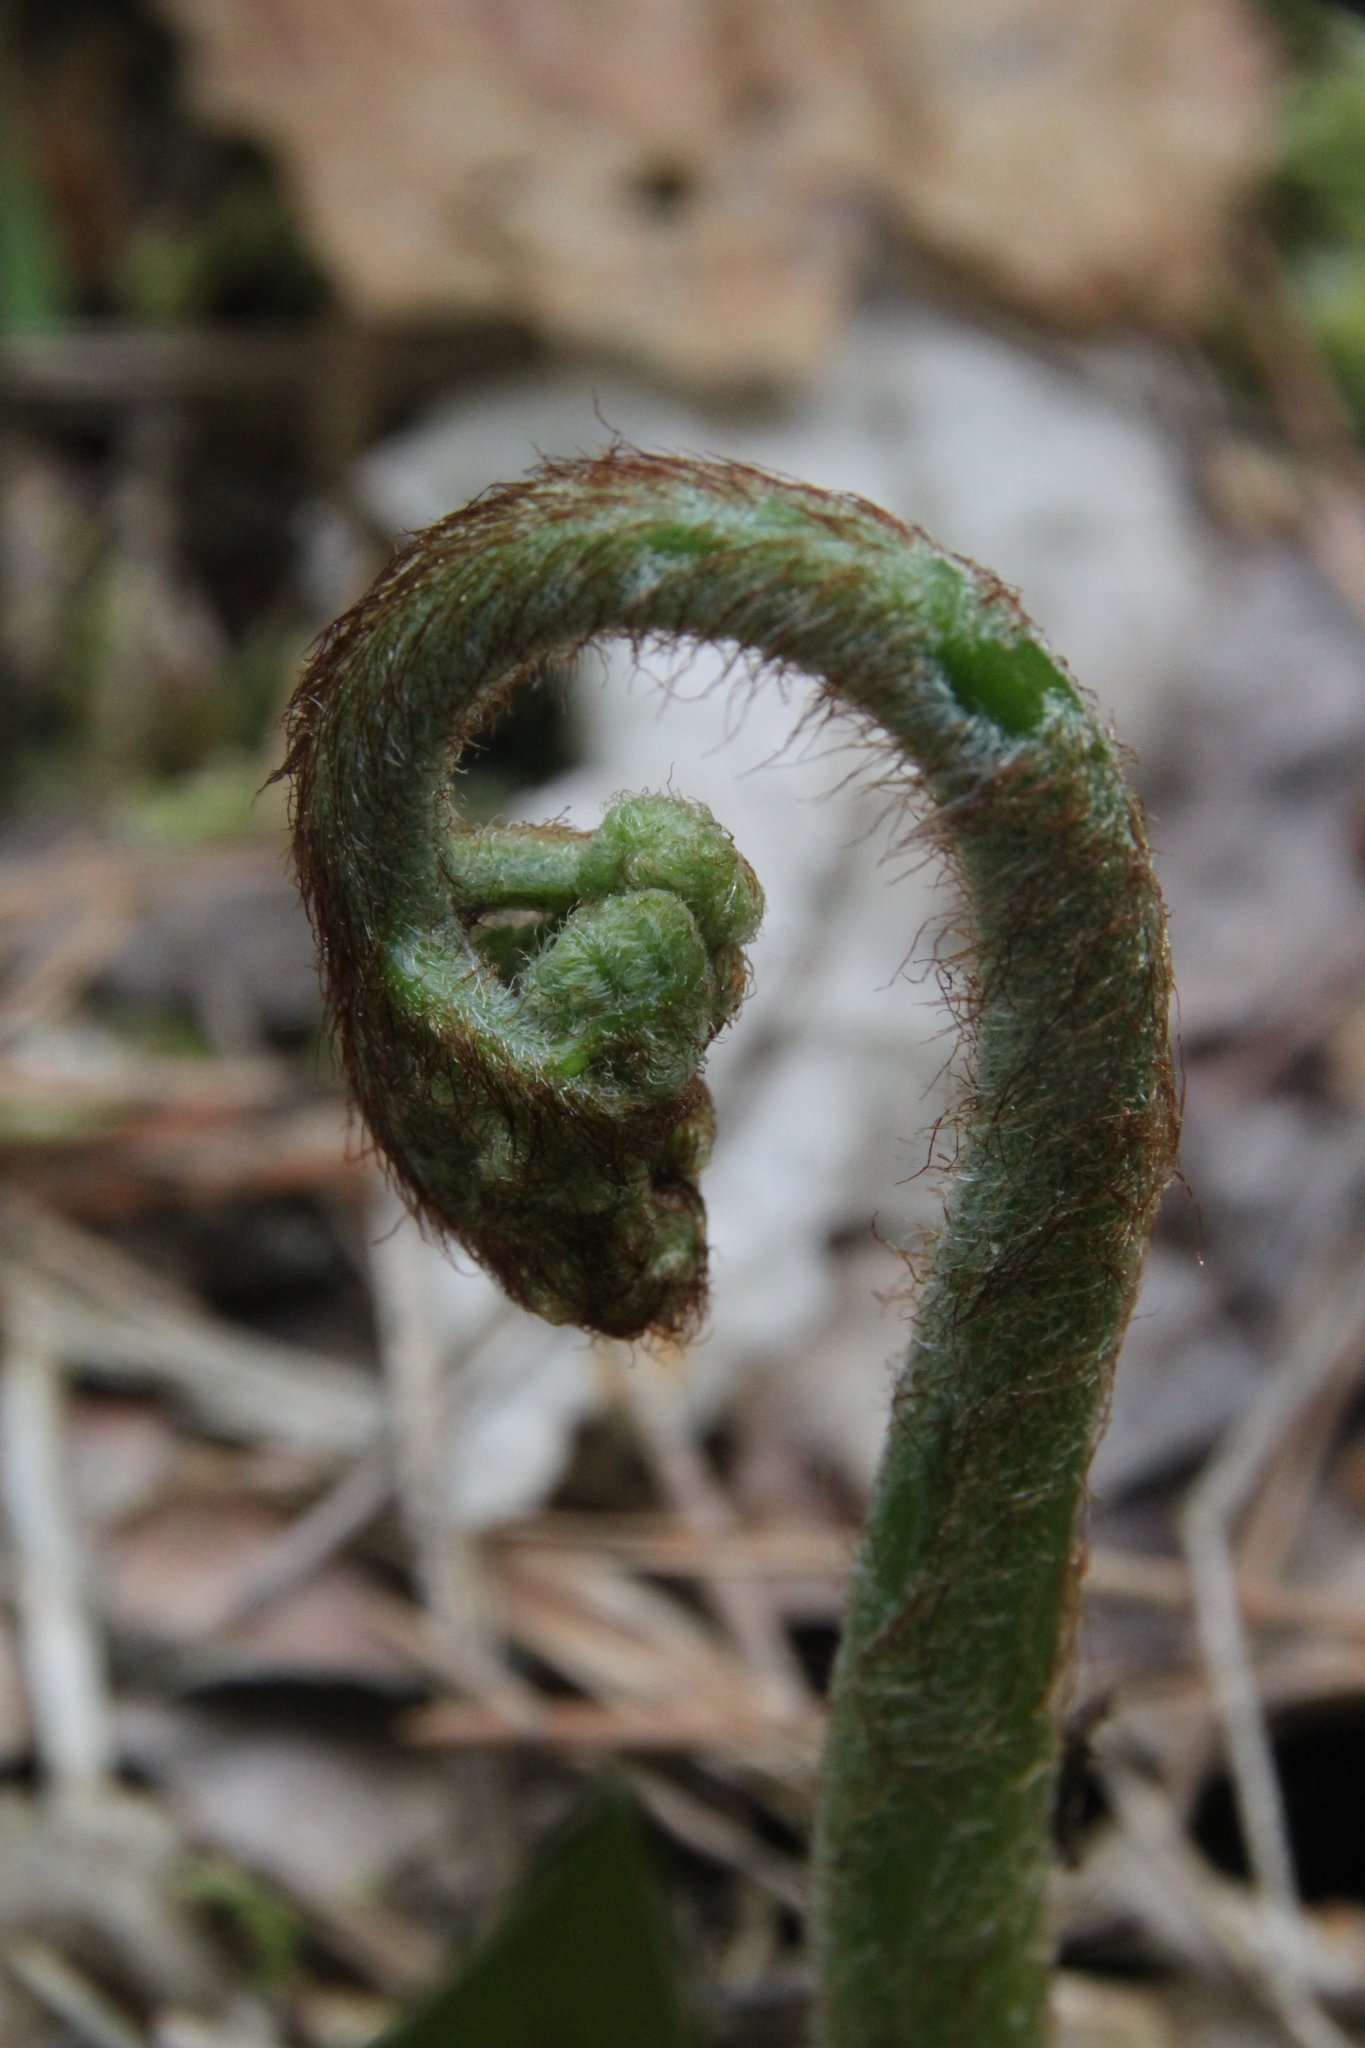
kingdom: Plantae
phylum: Tracheophyta
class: Polypodiopsida
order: Polypodiales
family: Dennstaedtiaceae
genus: Pteridium
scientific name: Pteridium aquilinum
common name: Bracken
